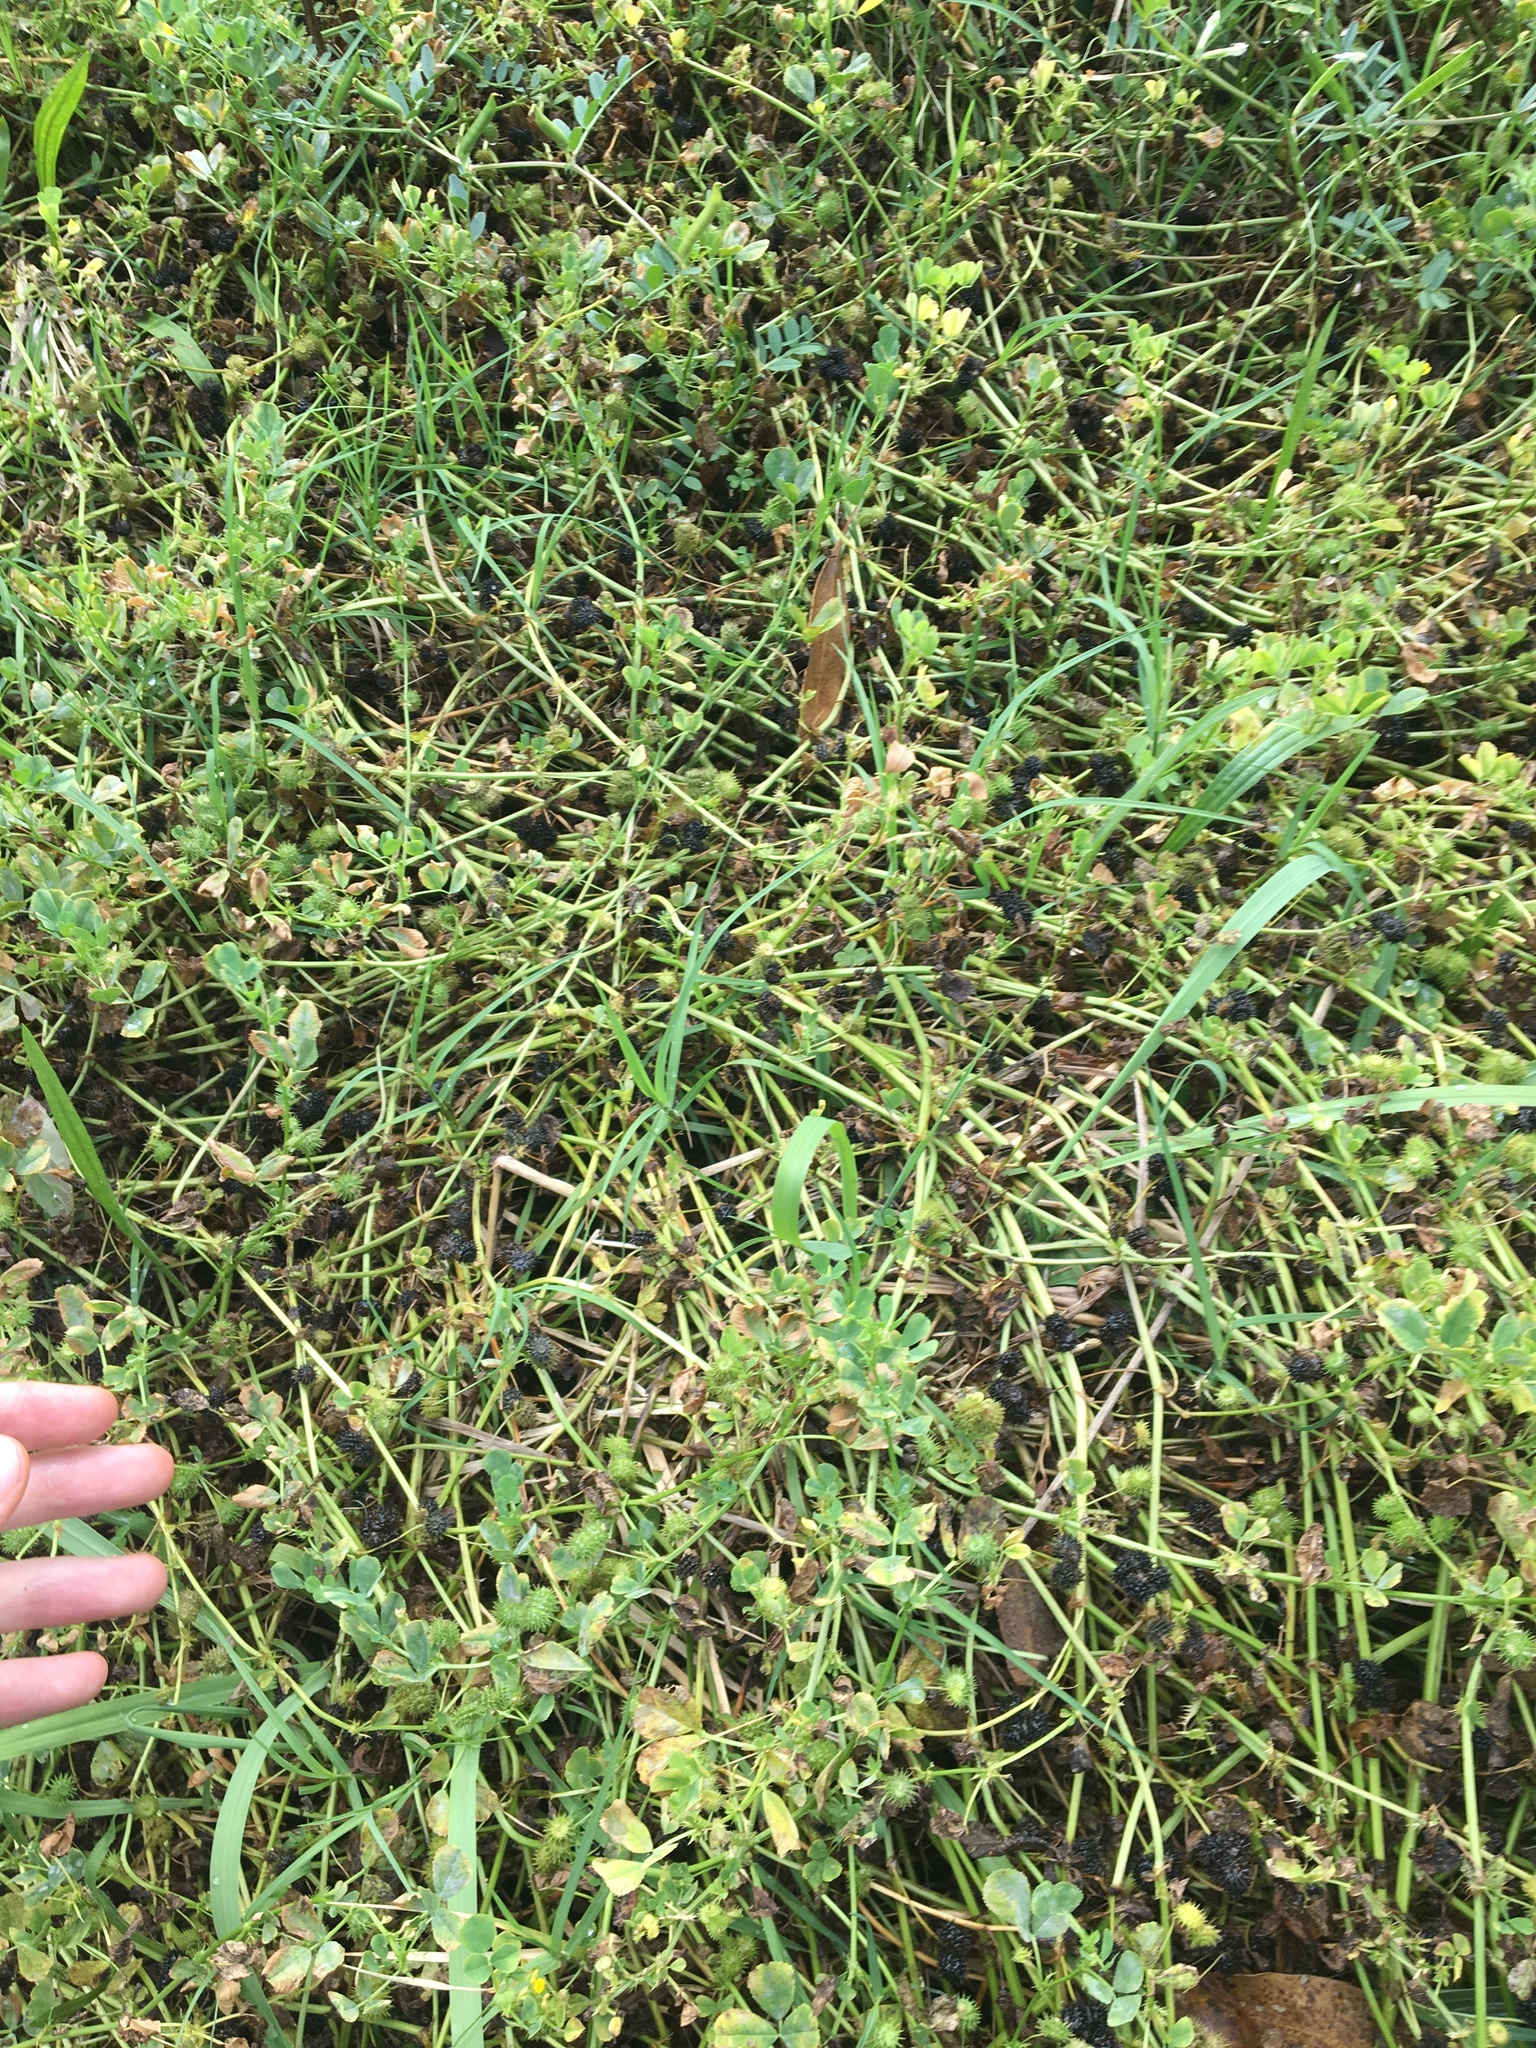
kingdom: Plantae
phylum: Tracheophyta
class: Magnoliopsida
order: Fabales
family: Fabaceae
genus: Medicago
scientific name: Medicago polymorpha
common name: Burclover
